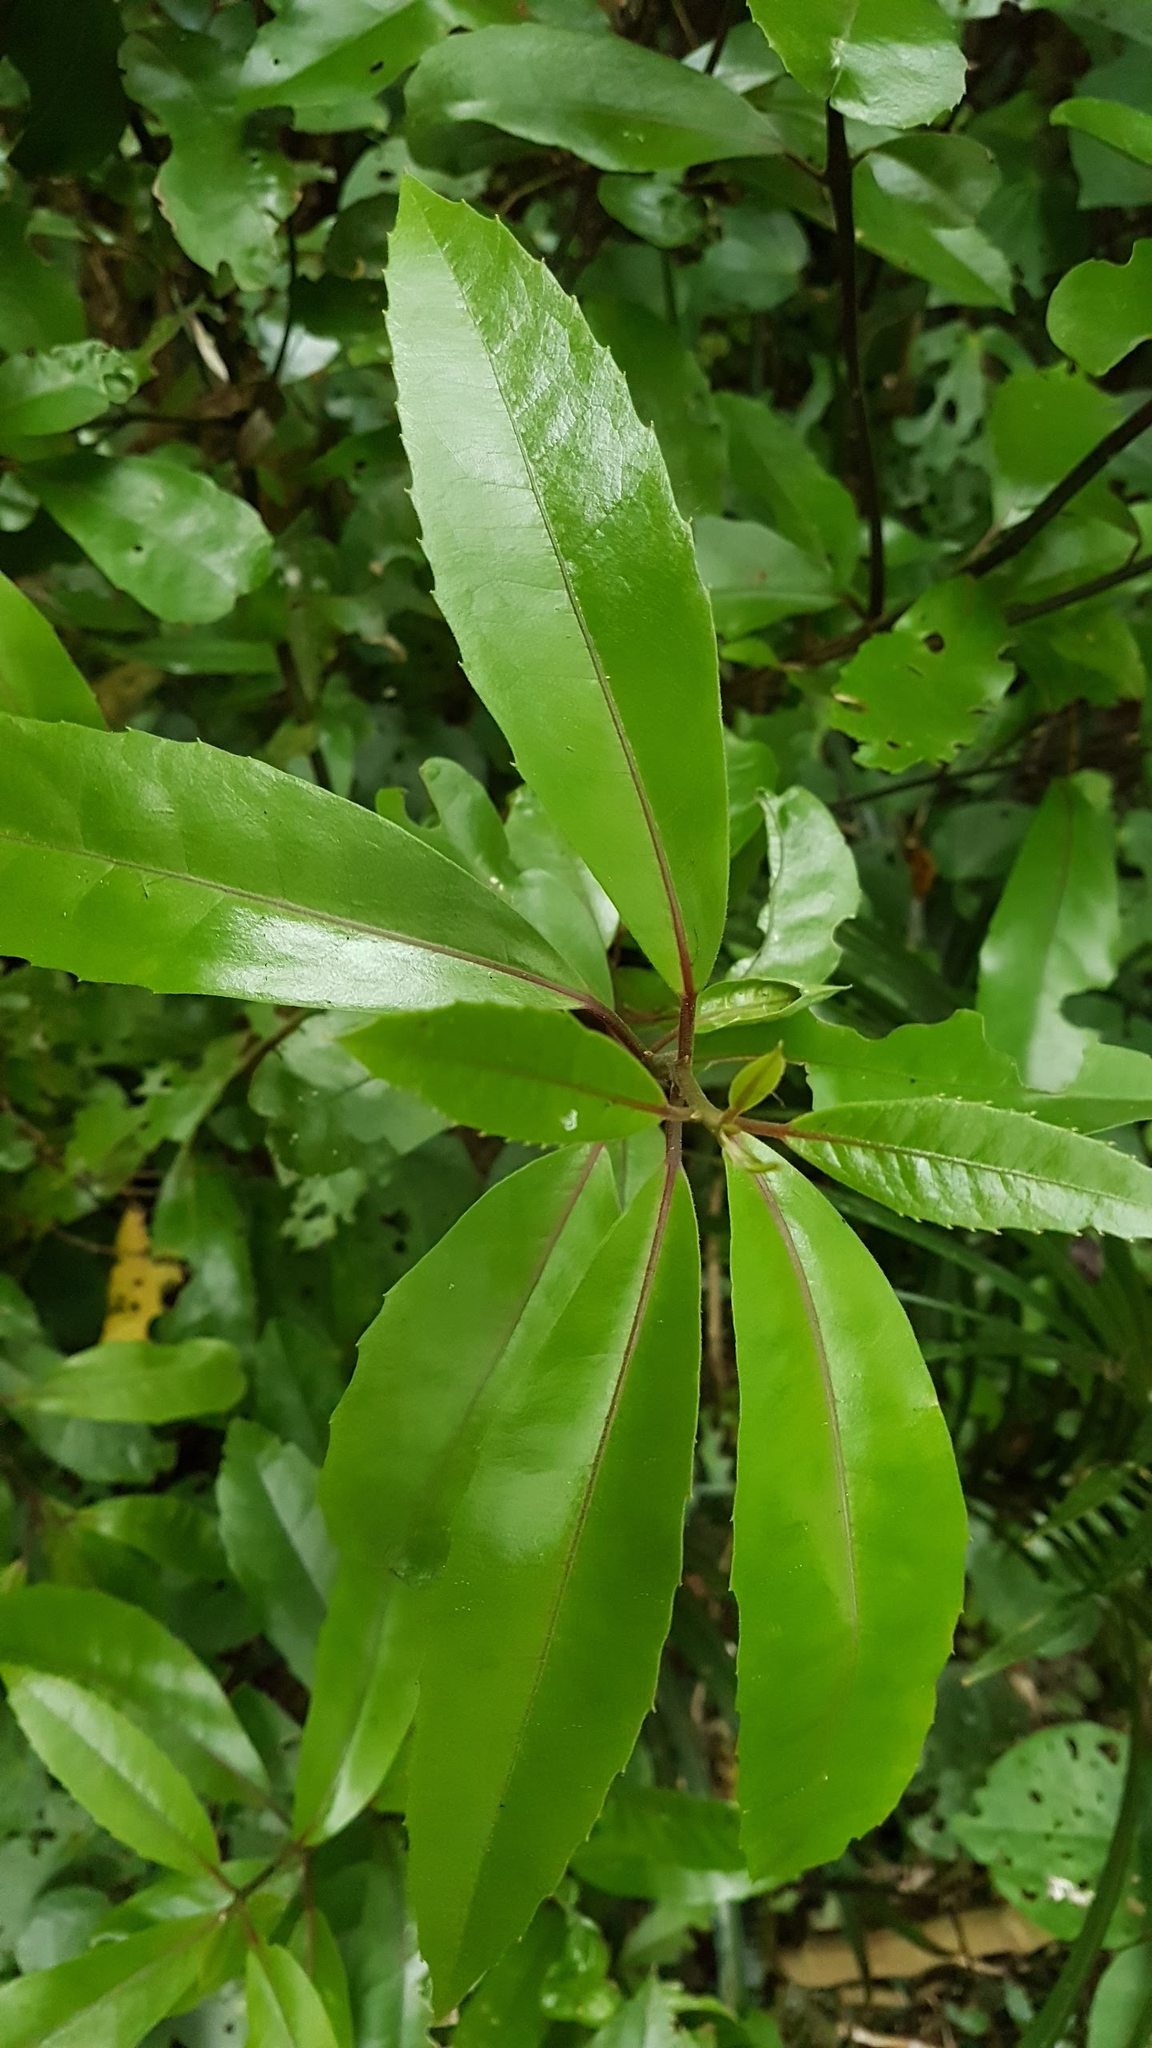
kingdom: Plantae
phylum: Tracheophyta
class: Magnoliopsida
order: Laurales
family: Monimiaceae
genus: Hedycarya
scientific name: Hedycarya arborea
